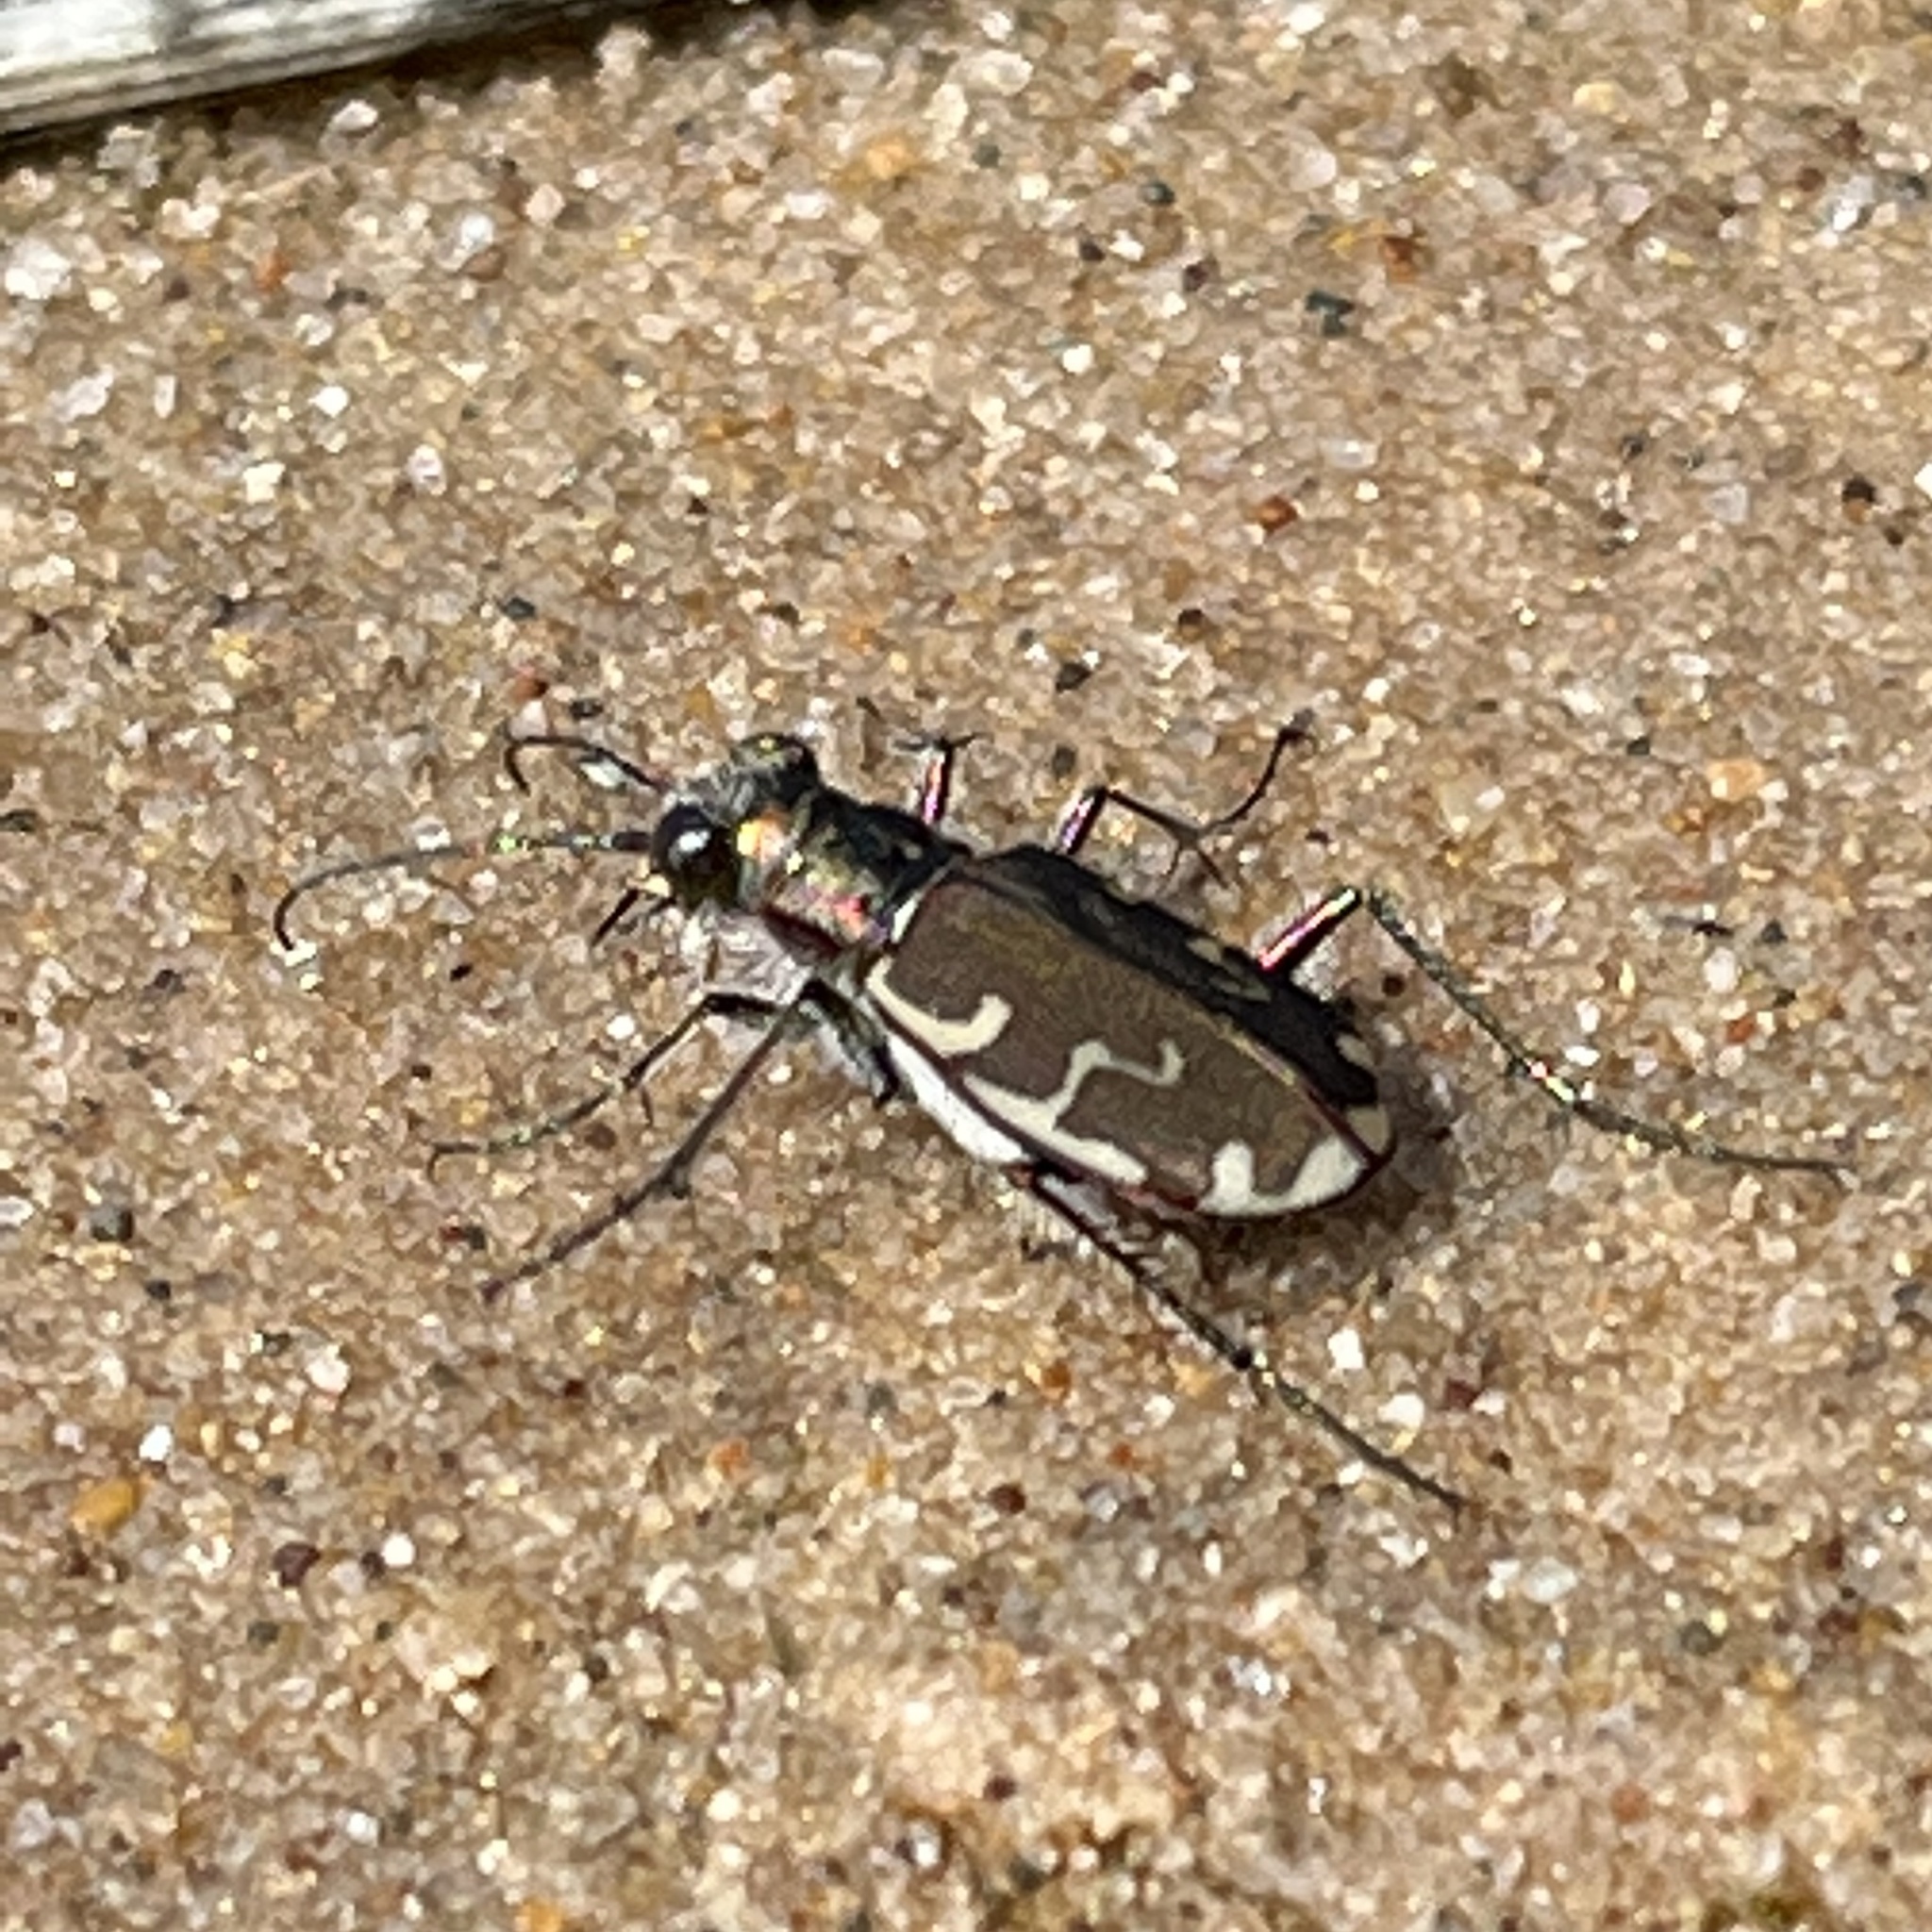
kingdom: Animalia
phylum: Arthropoda
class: Insecta
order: Coleoptera
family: Carabidae
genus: Cicindela
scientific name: Cicindela repanda
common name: Bronzed tiger beetle
